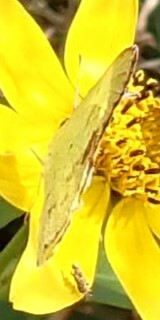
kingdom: Animalia
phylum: Arthropoda
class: Insecta
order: Lepidoptera
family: Pieridae
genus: Pyrisitia
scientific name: Pyrisitia lisa
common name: Little yellow
